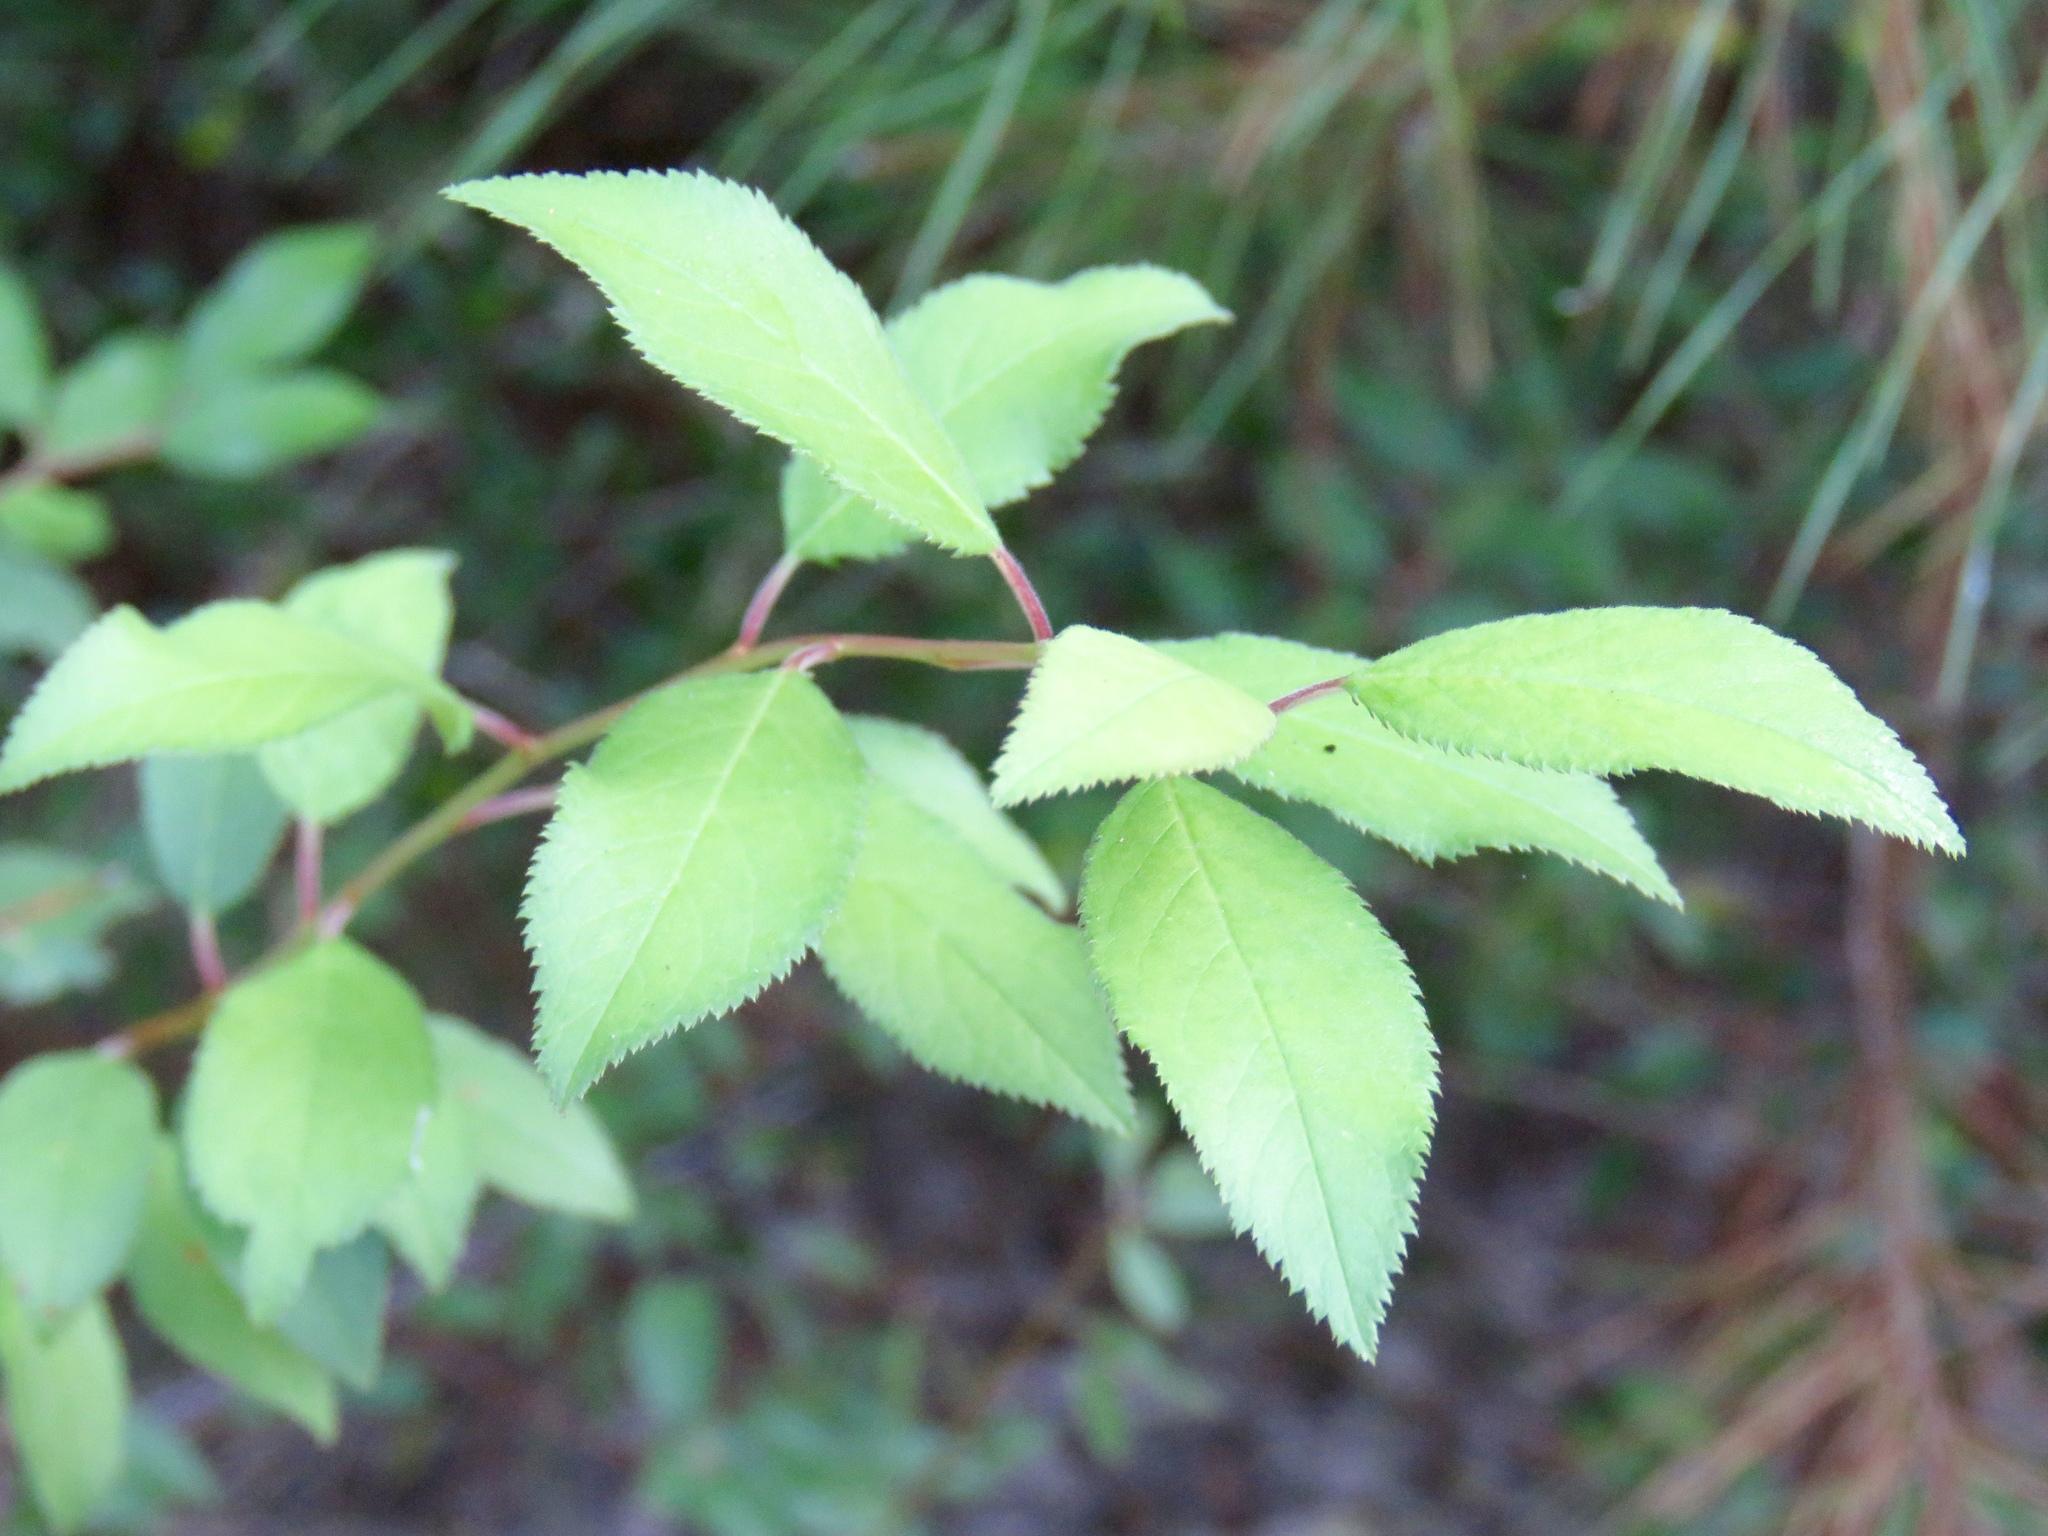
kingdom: Plantae
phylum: Tracheophyta
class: Magnoliopsida
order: Rosales
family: Rosaceae
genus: Prunus
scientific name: Prunus umbellata
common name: Allegheny plum
